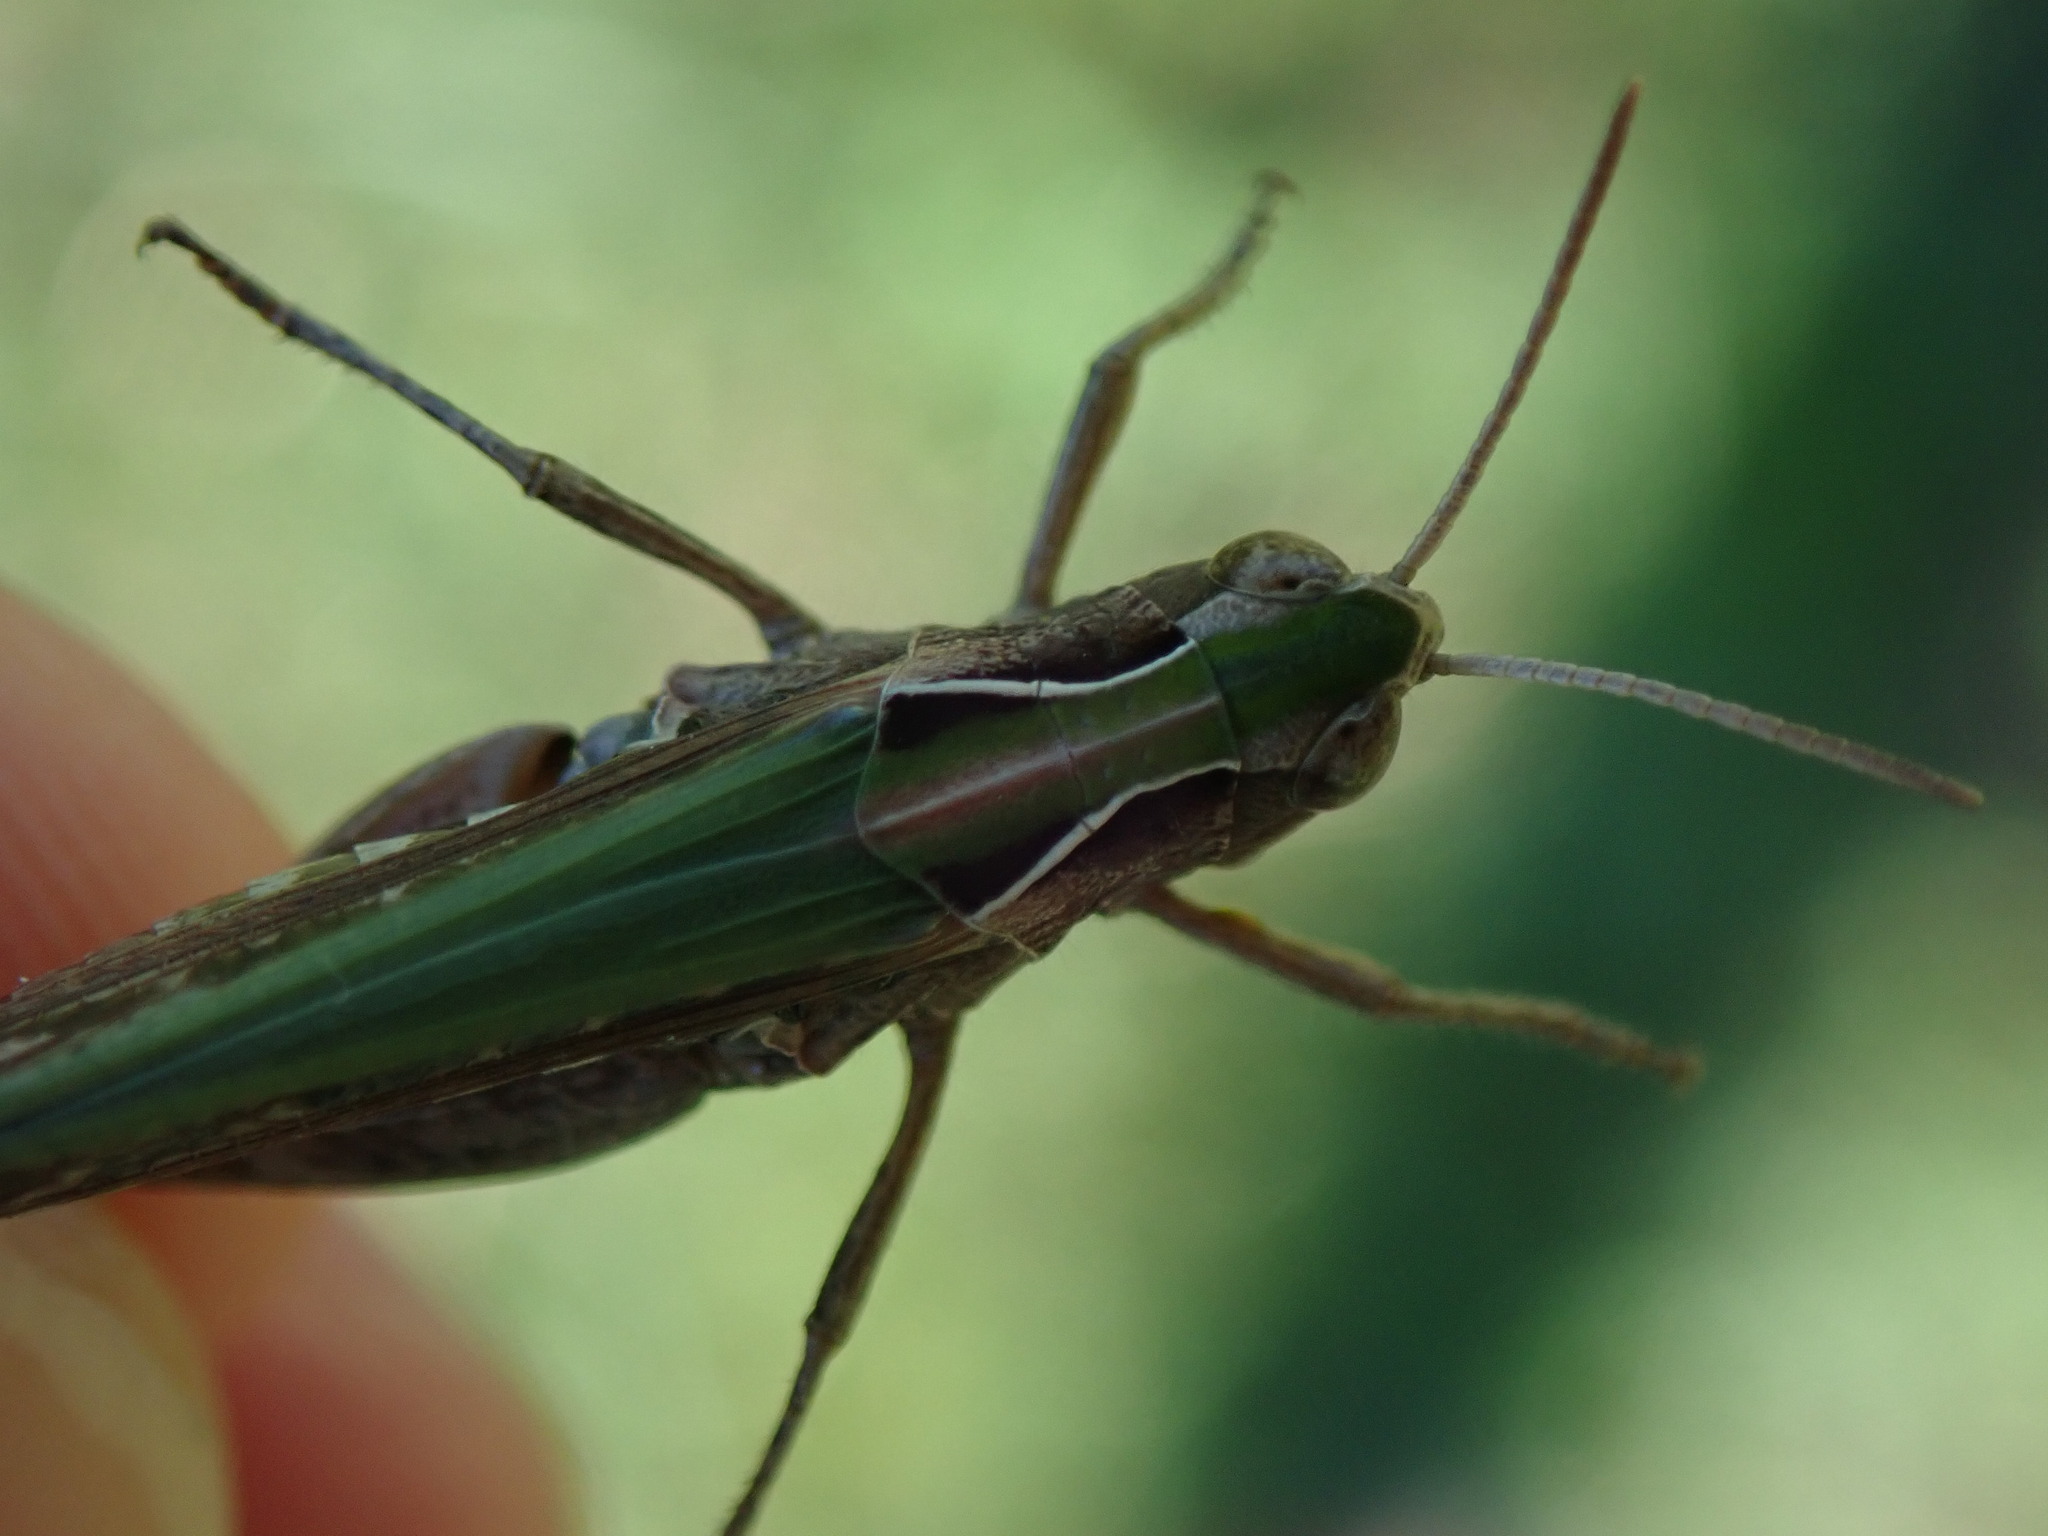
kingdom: Animalia
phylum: Arthropoda
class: Insecta
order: Orthoptera
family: Acrididae
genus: Omocestus
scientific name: Omocestus rufipes
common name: Woodland grasshopper
